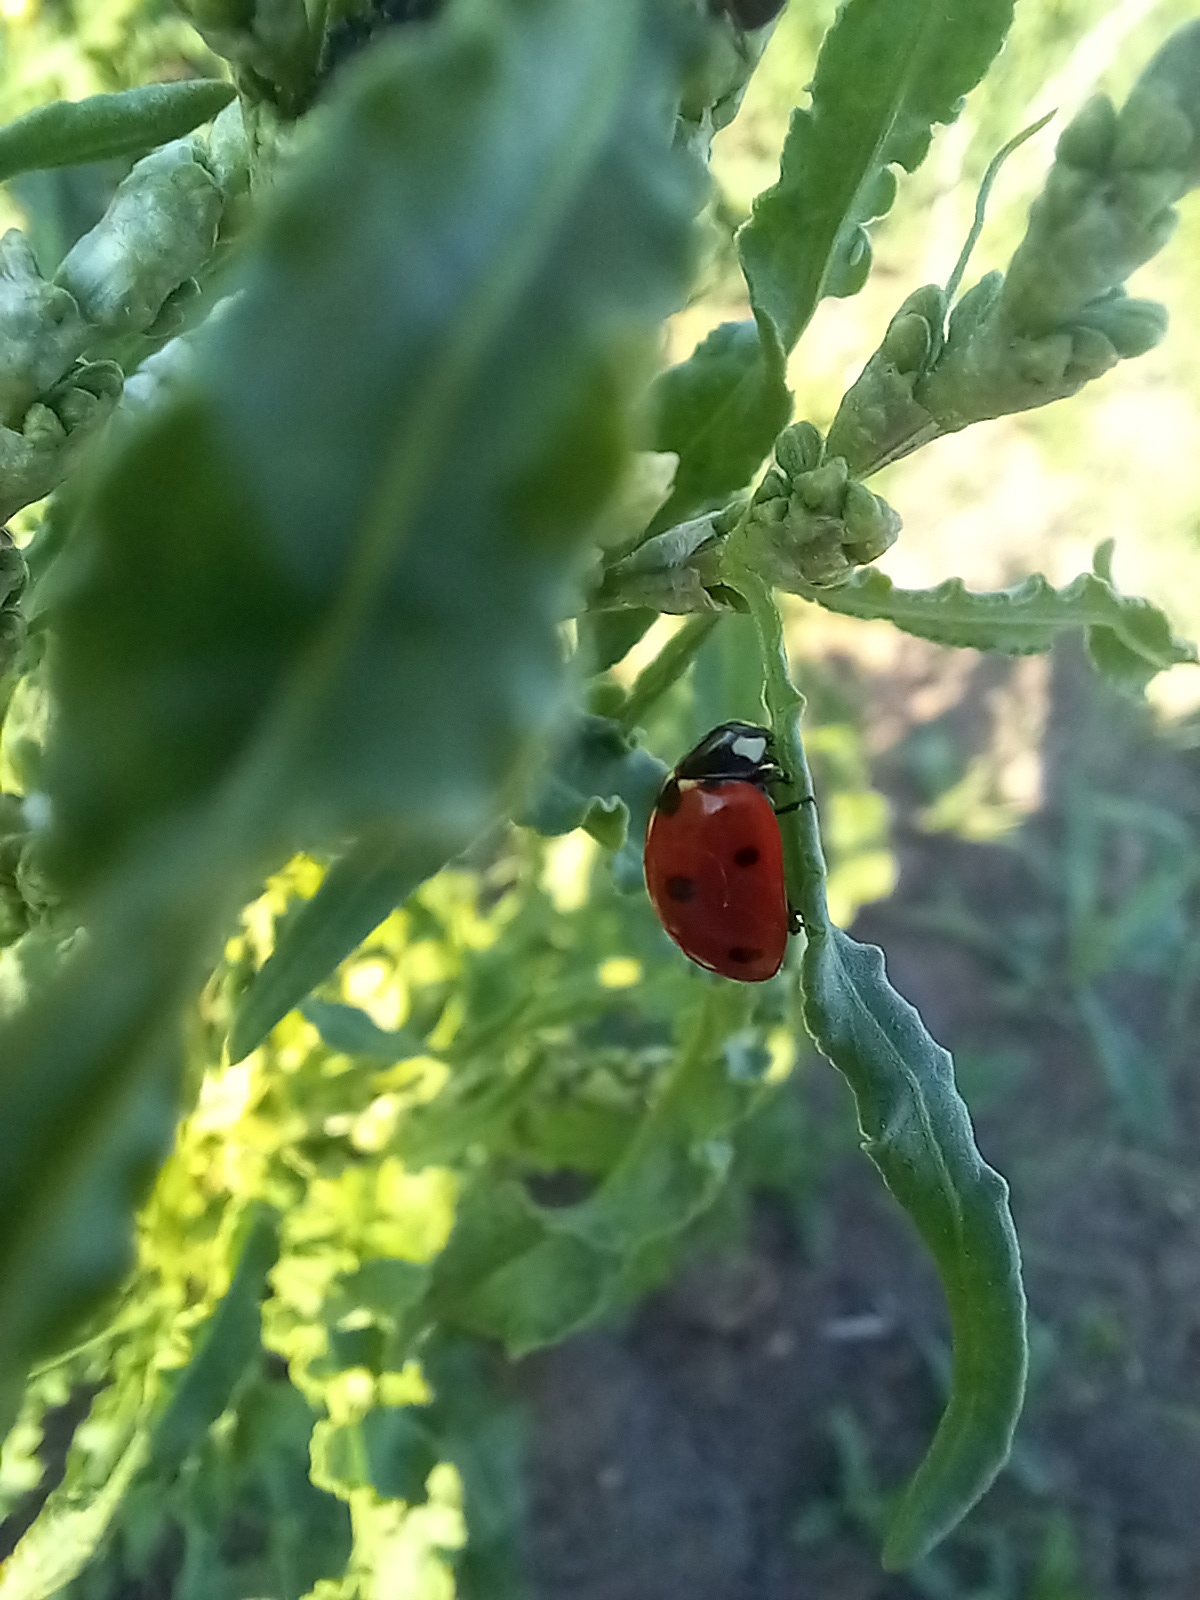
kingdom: Animalia
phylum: Arthropoda
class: Insecta
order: Coleoptera
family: Coccinellidae
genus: Coccinella
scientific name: Coccinella septempunctata
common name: Sevenspotted lady beetle
